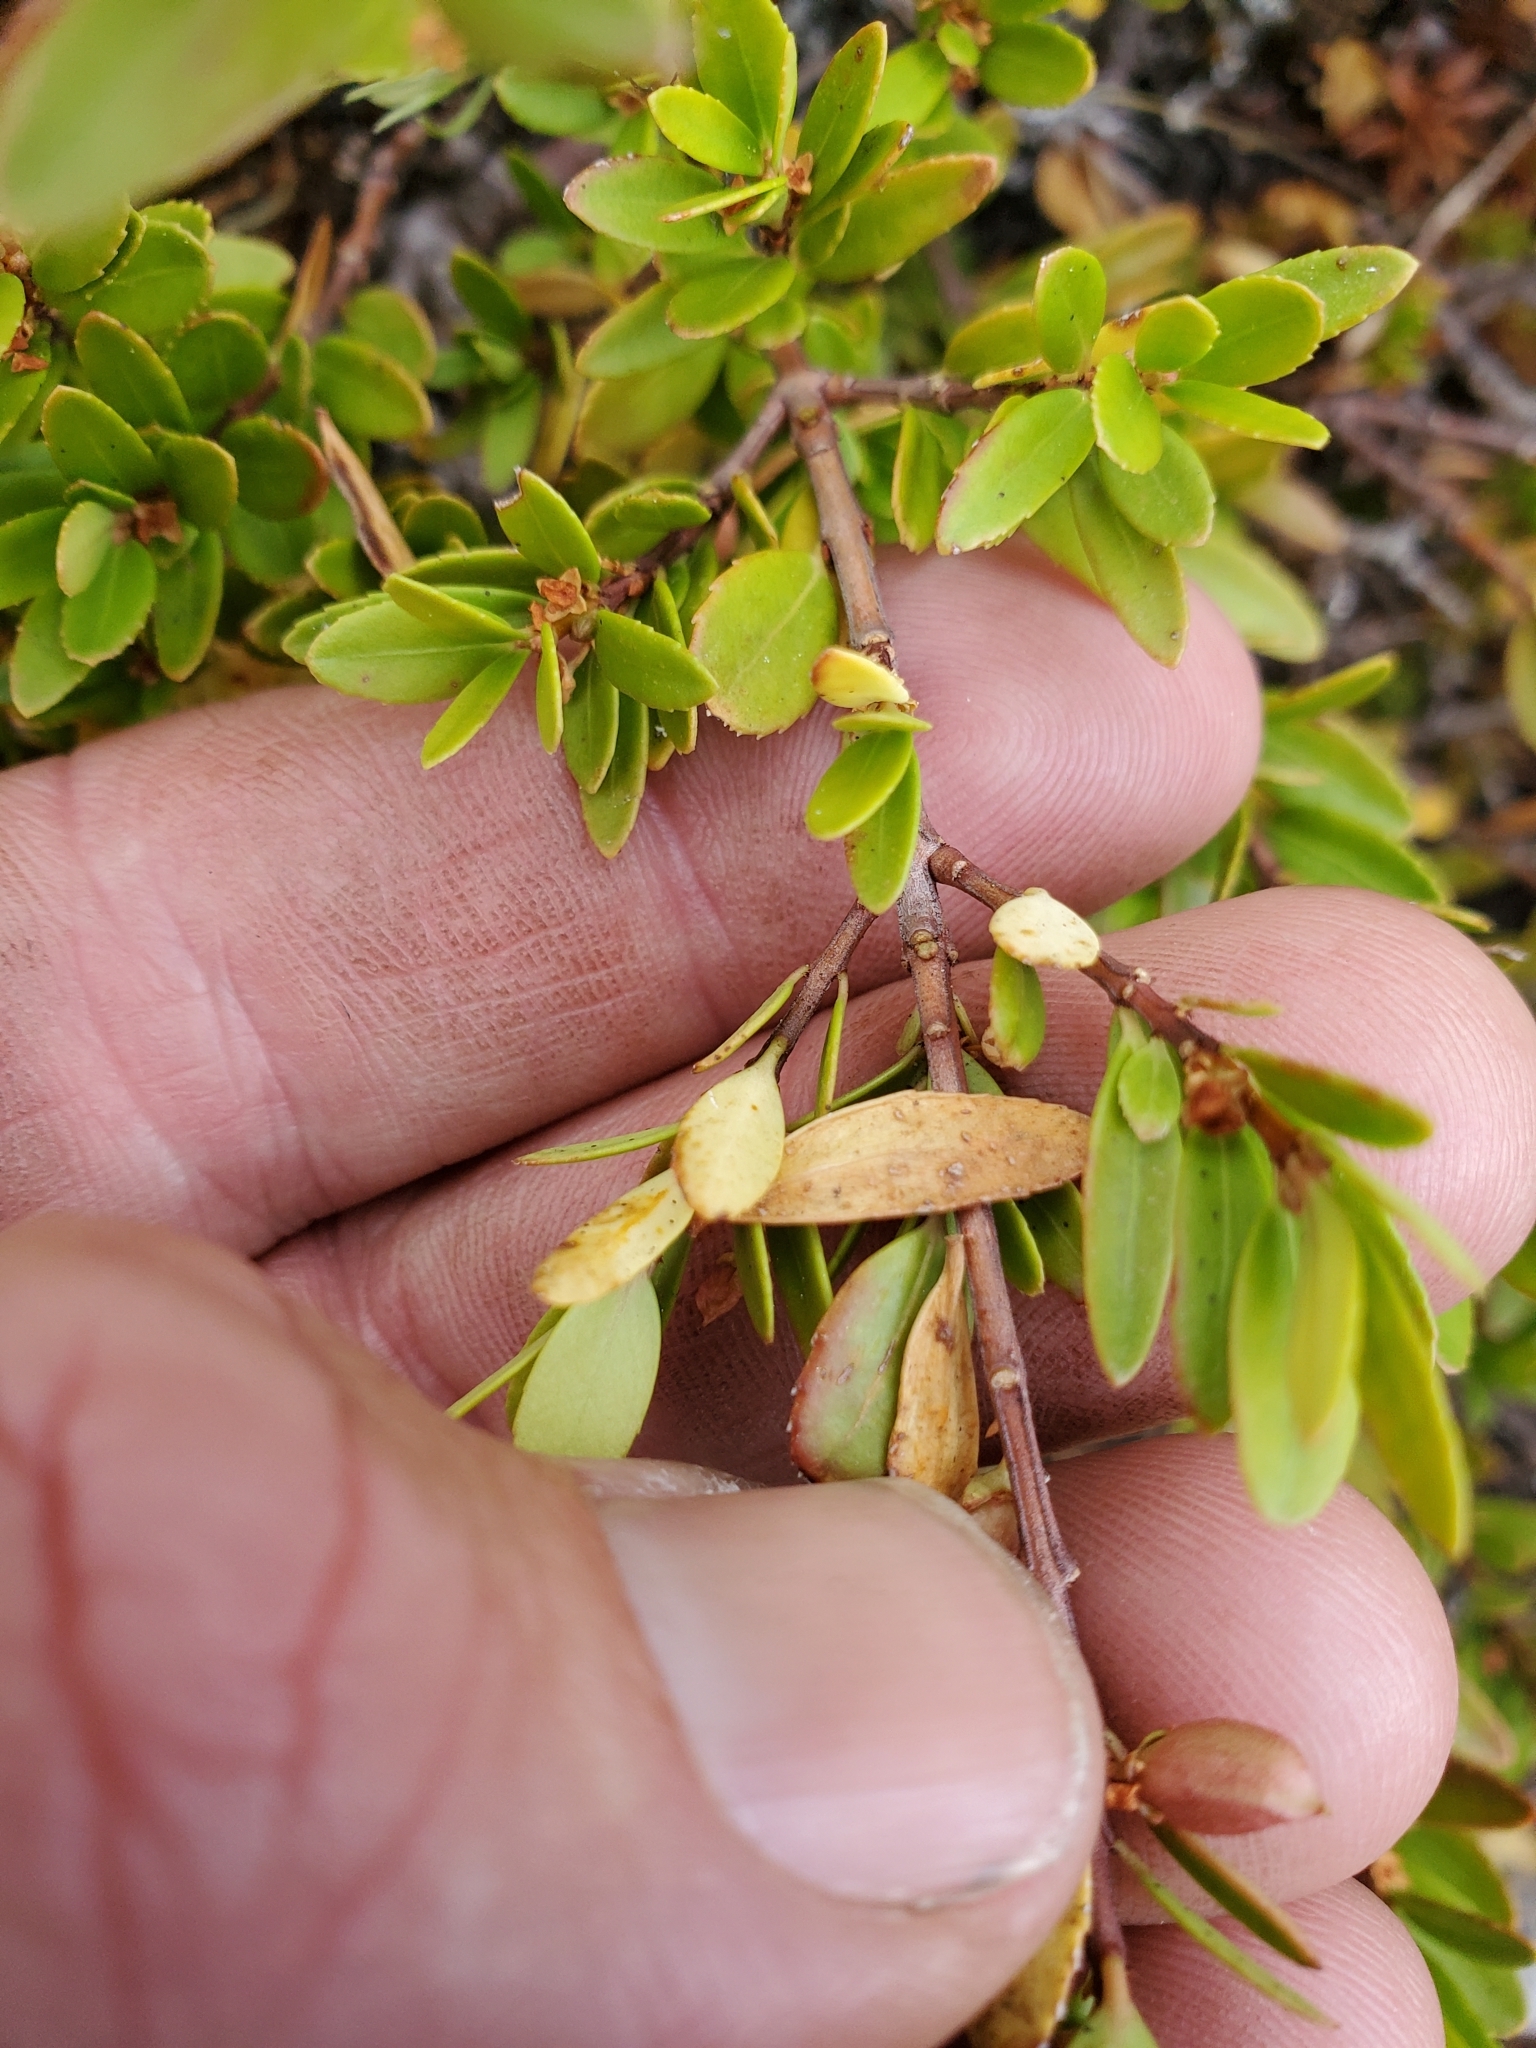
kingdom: Plantae
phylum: Tracheophyta
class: Magnoliopsida
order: Celastrales
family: Celastraceae
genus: Paxistima
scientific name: Paxistima myrsinites
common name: Mountain-lover
